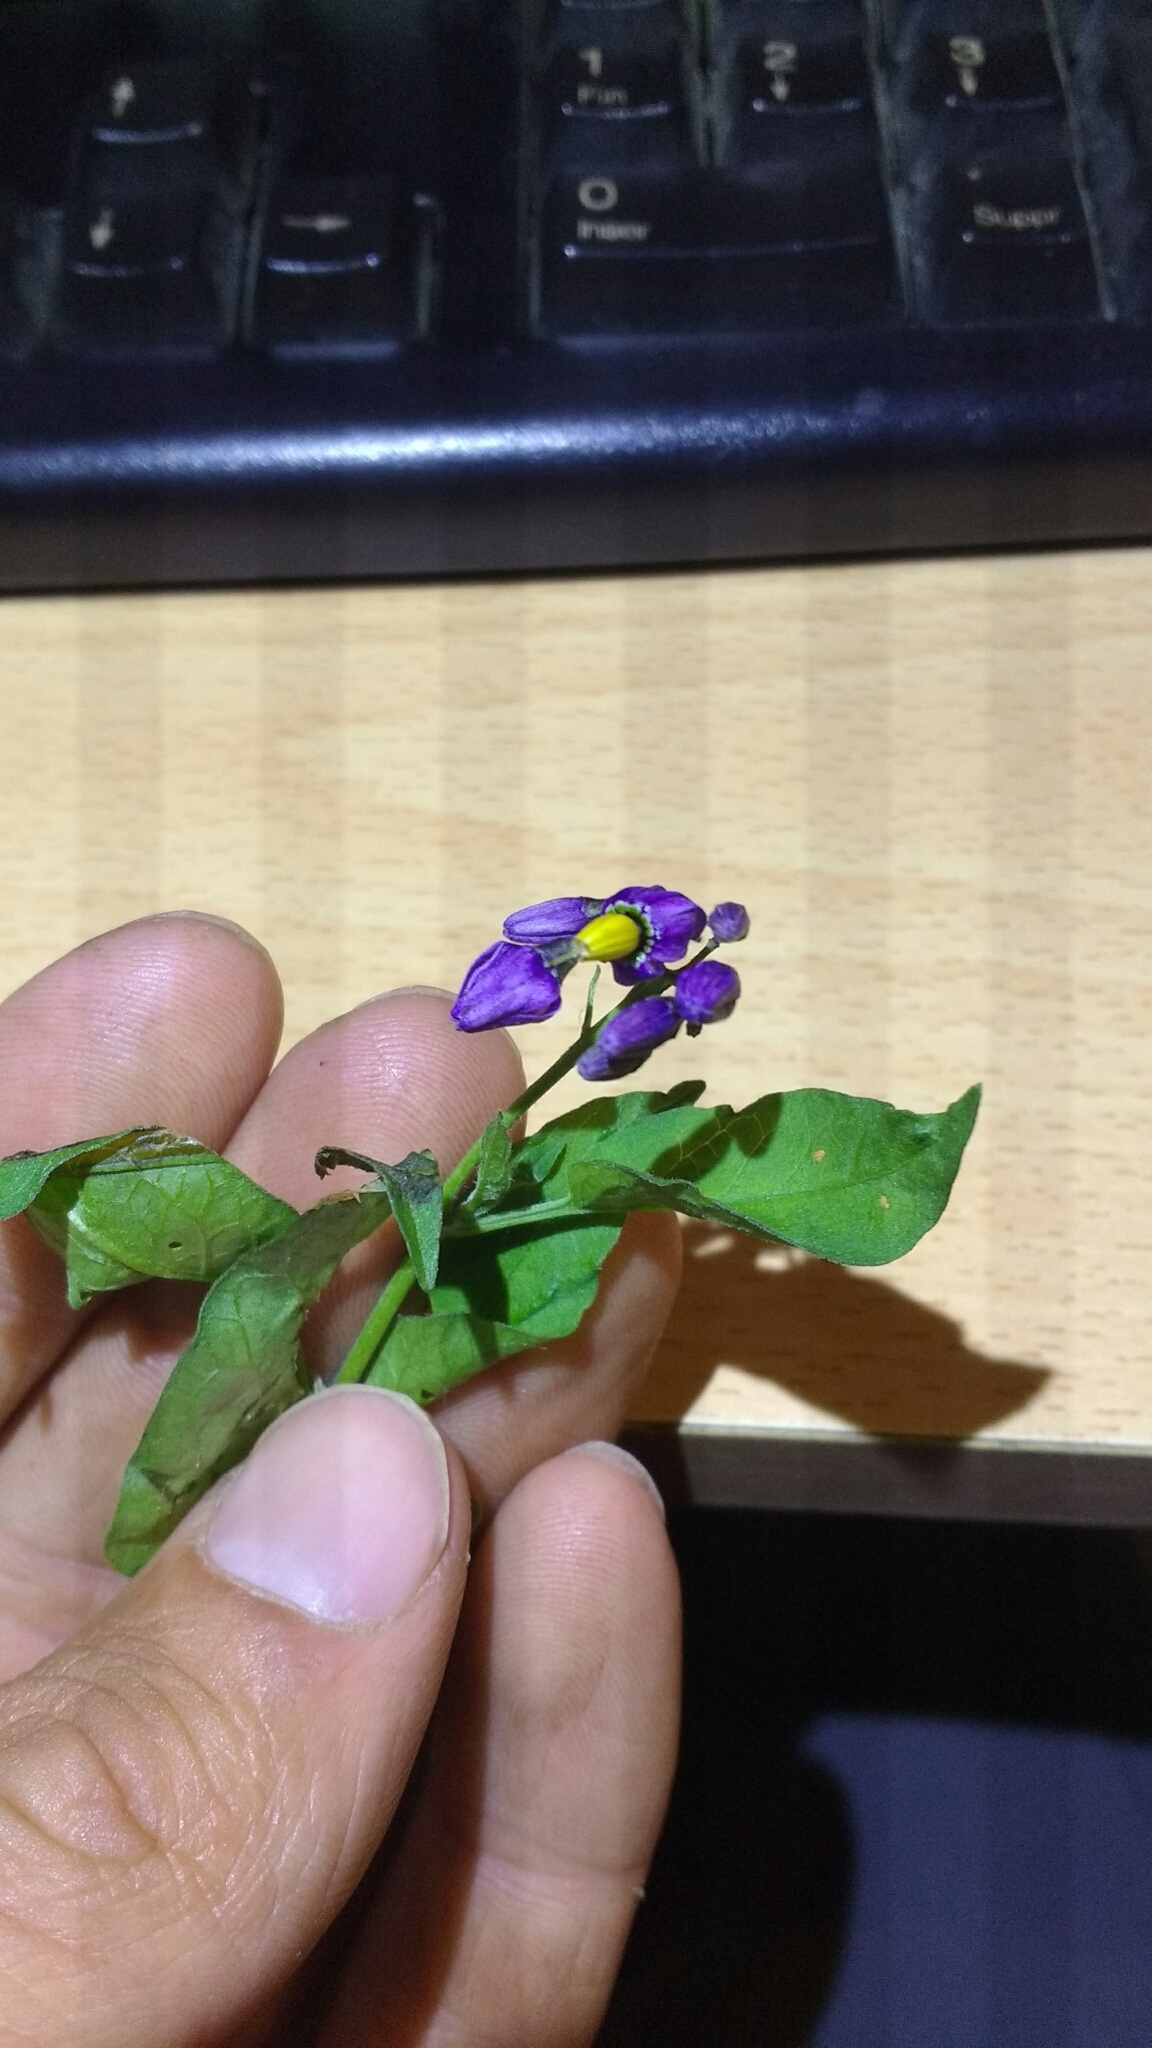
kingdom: Plantae
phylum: Tracheophyta
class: Magnoliopsida
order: Solanales
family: Solanaceae
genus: Solanum
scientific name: Solanum dulcamara
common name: Climbing nightshade
